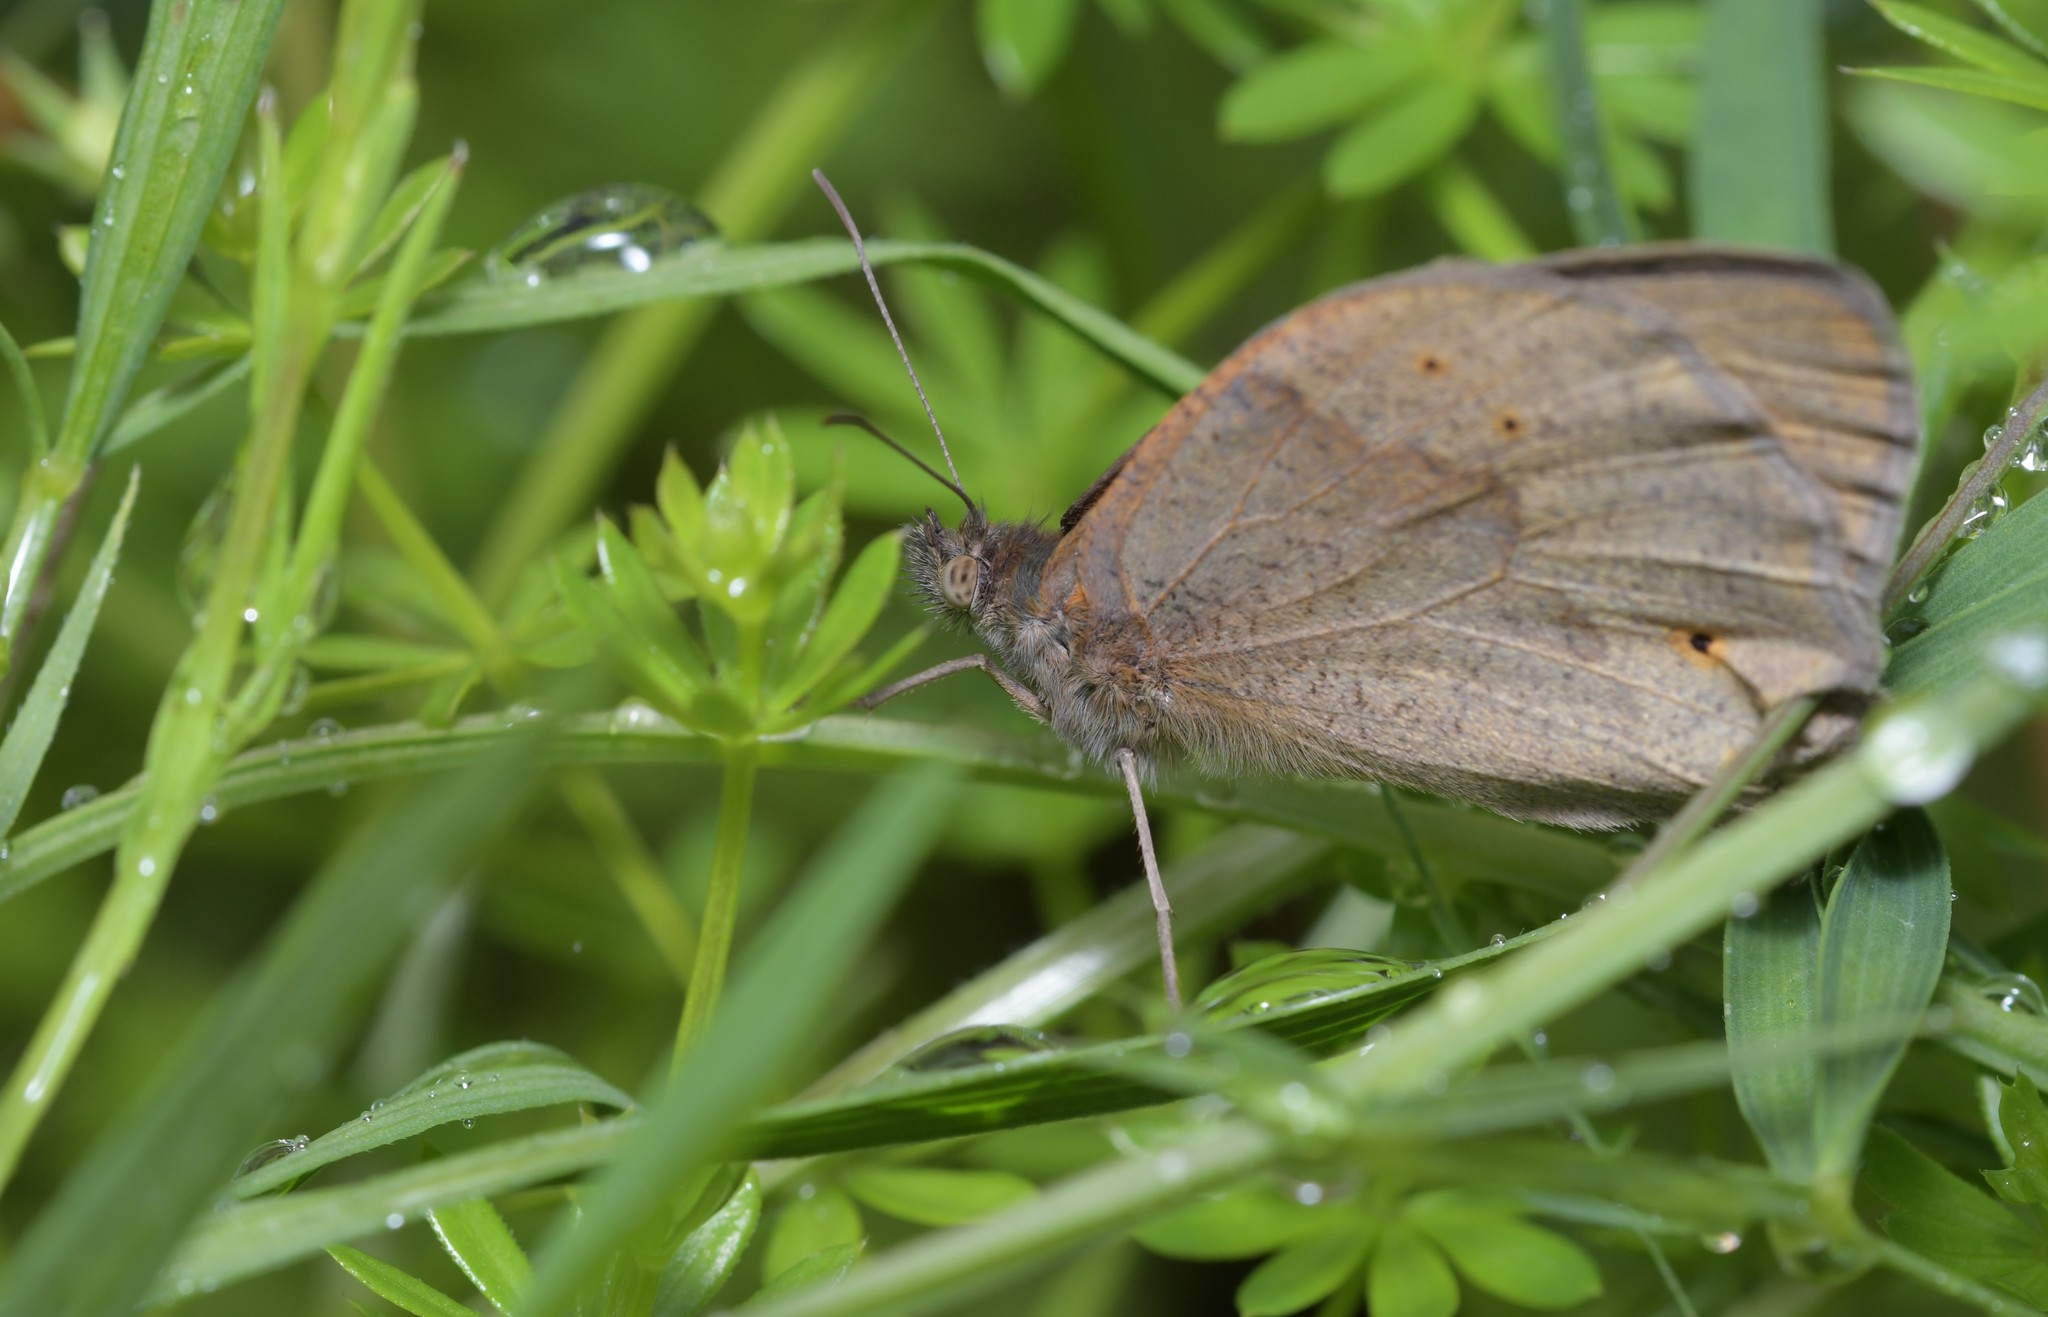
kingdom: Animalia
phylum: Arthropoda
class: Insecta
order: Lepidoptera
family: Nymphalidae
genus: Maniola
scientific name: Maniola jurtina
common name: Meadow brown
